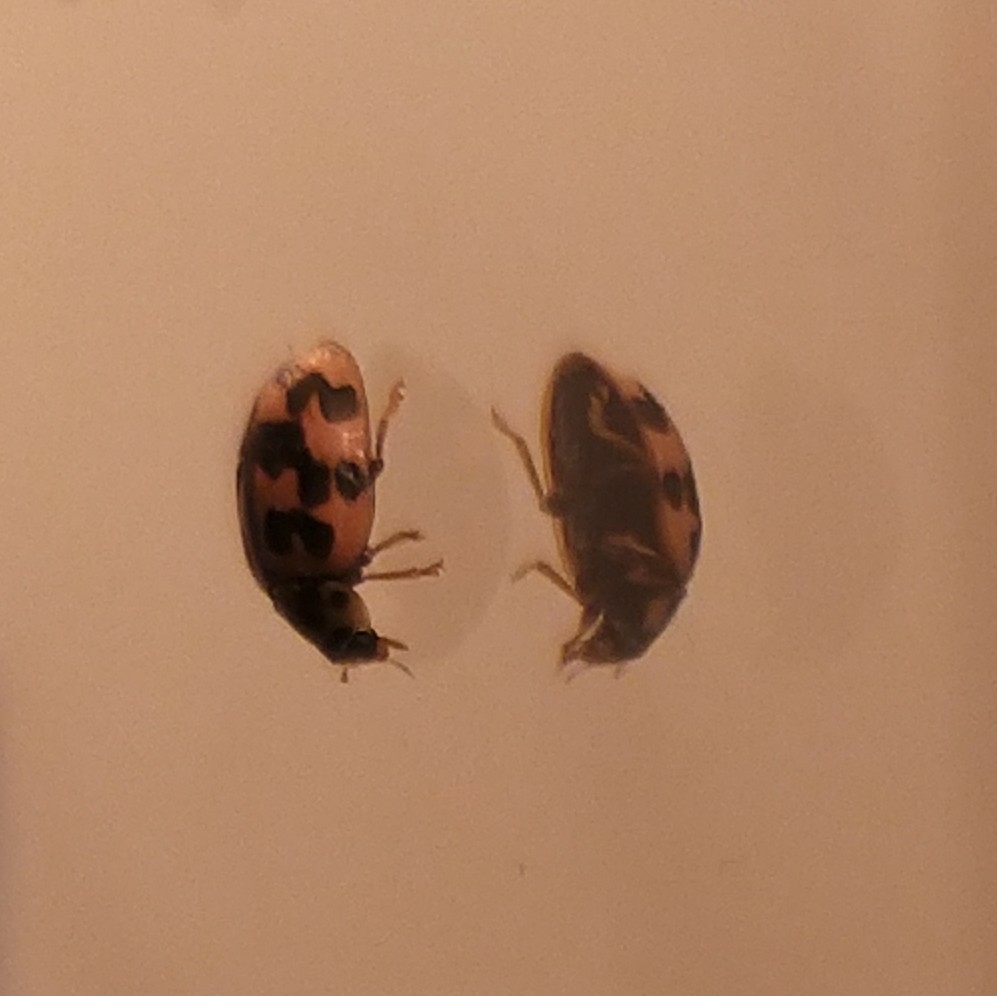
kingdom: Animalia
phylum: Arthropoda
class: Insecta
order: Coleoptera
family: Coccinellidae
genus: Oenopia
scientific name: Oenopia conglobata
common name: Ladybird beetle
